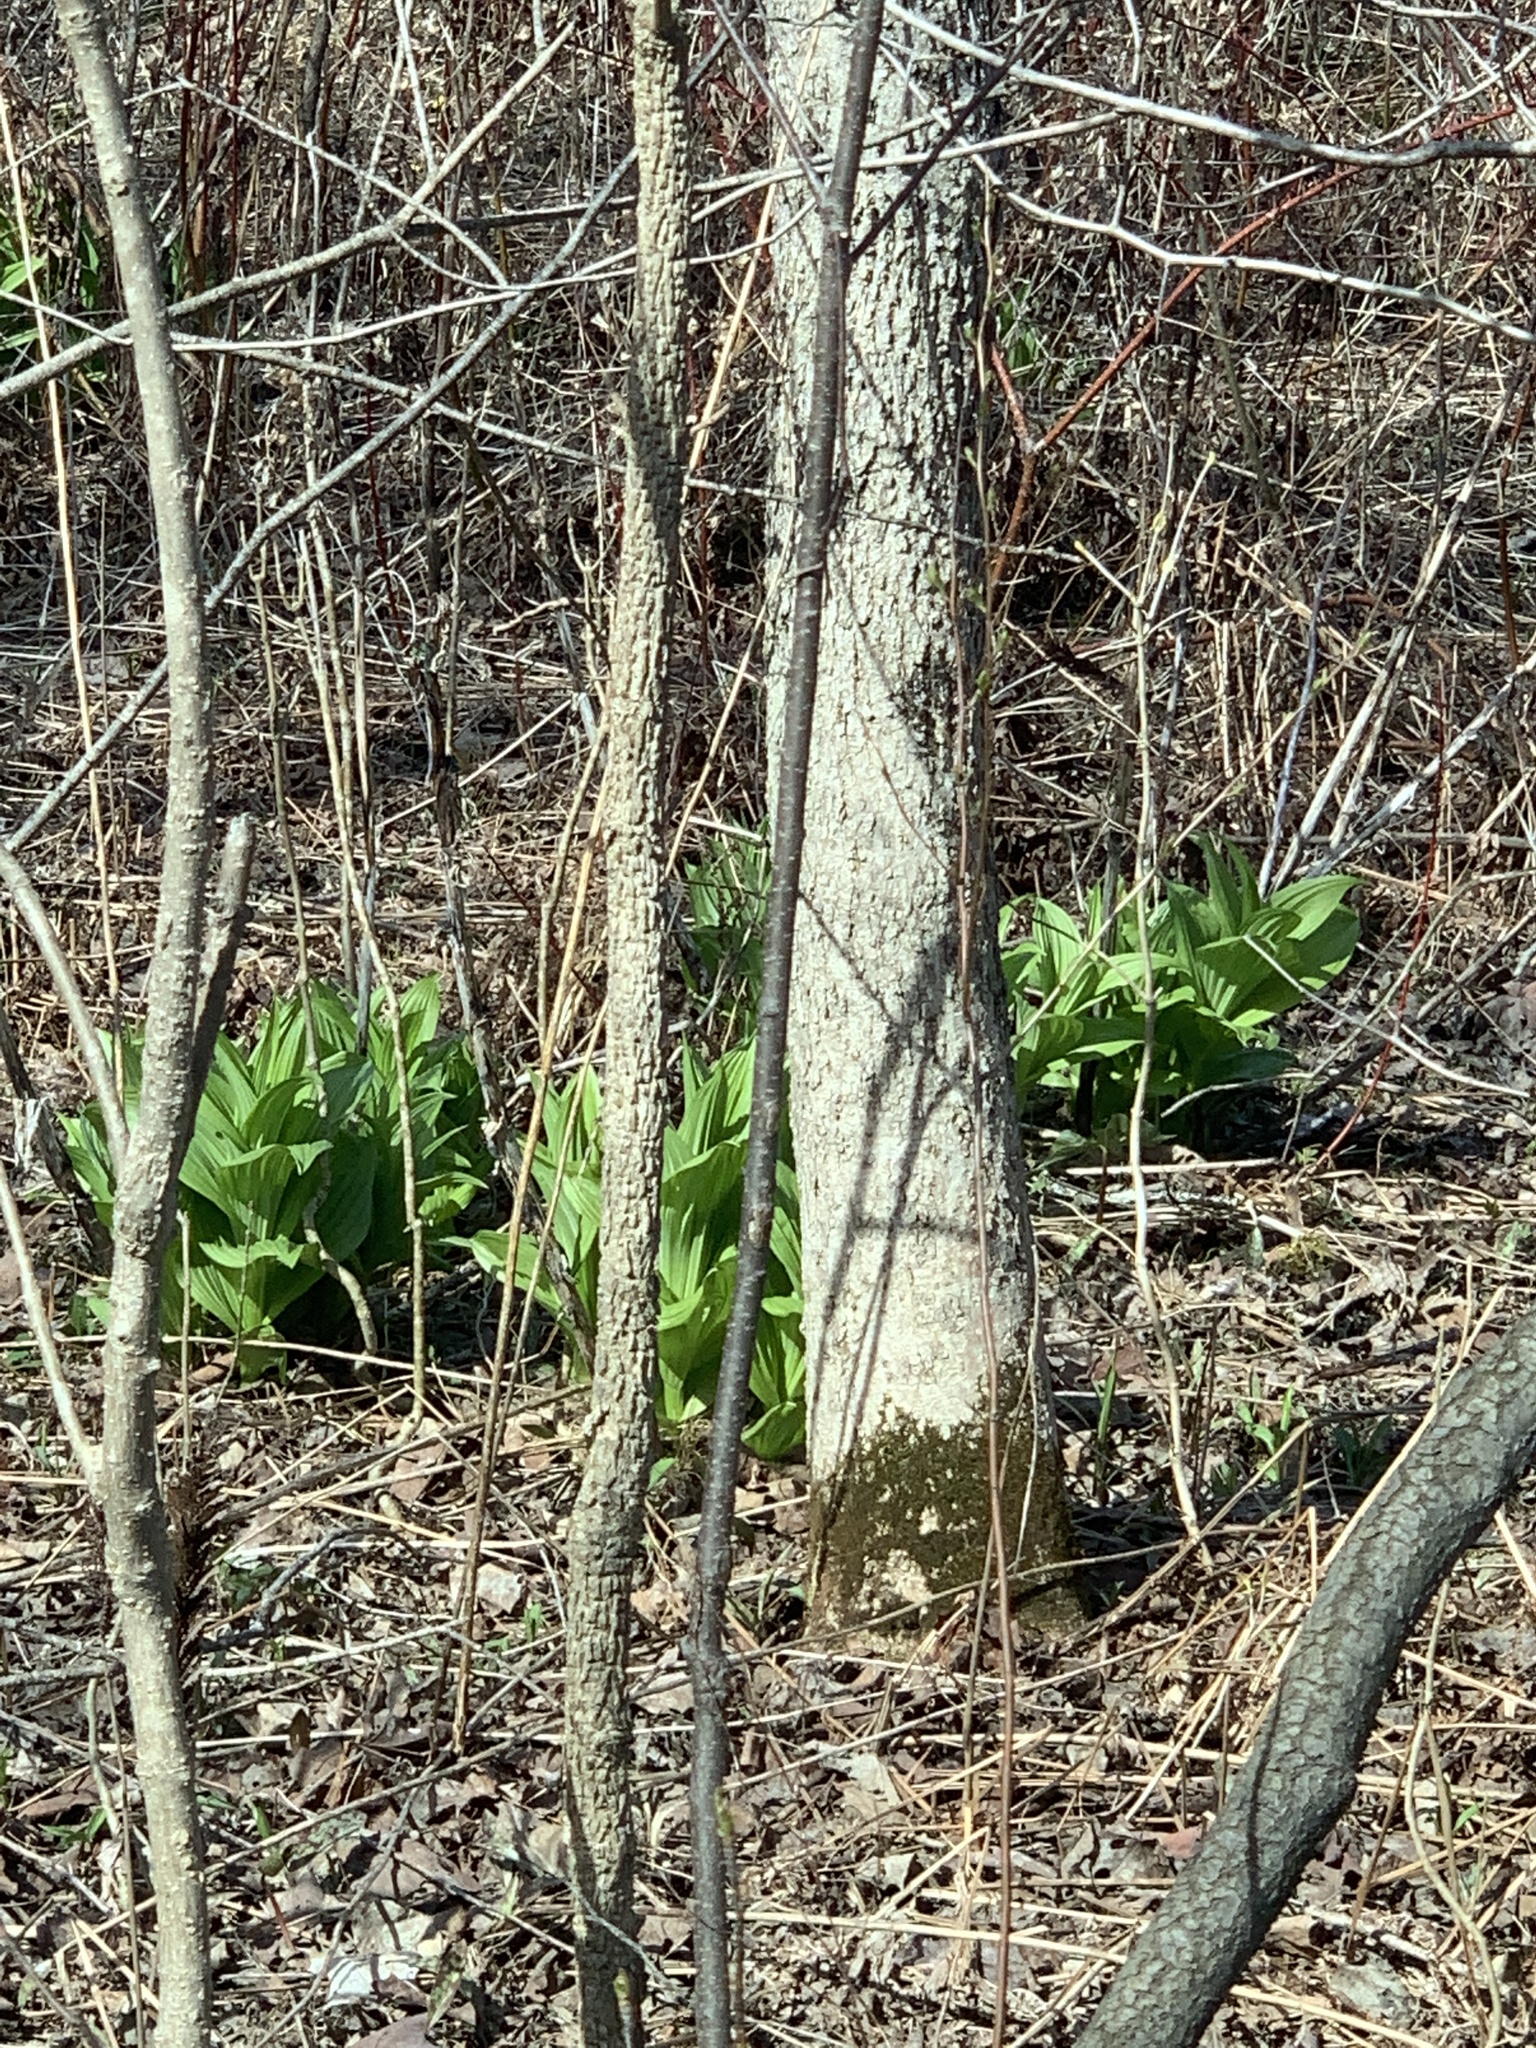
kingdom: Plantae
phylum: Tracheophyta
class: Liliopsida
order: Liliales
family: Melanthiaceae
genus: Veratrum
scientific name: Veratrum viride
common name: American false hellebore
